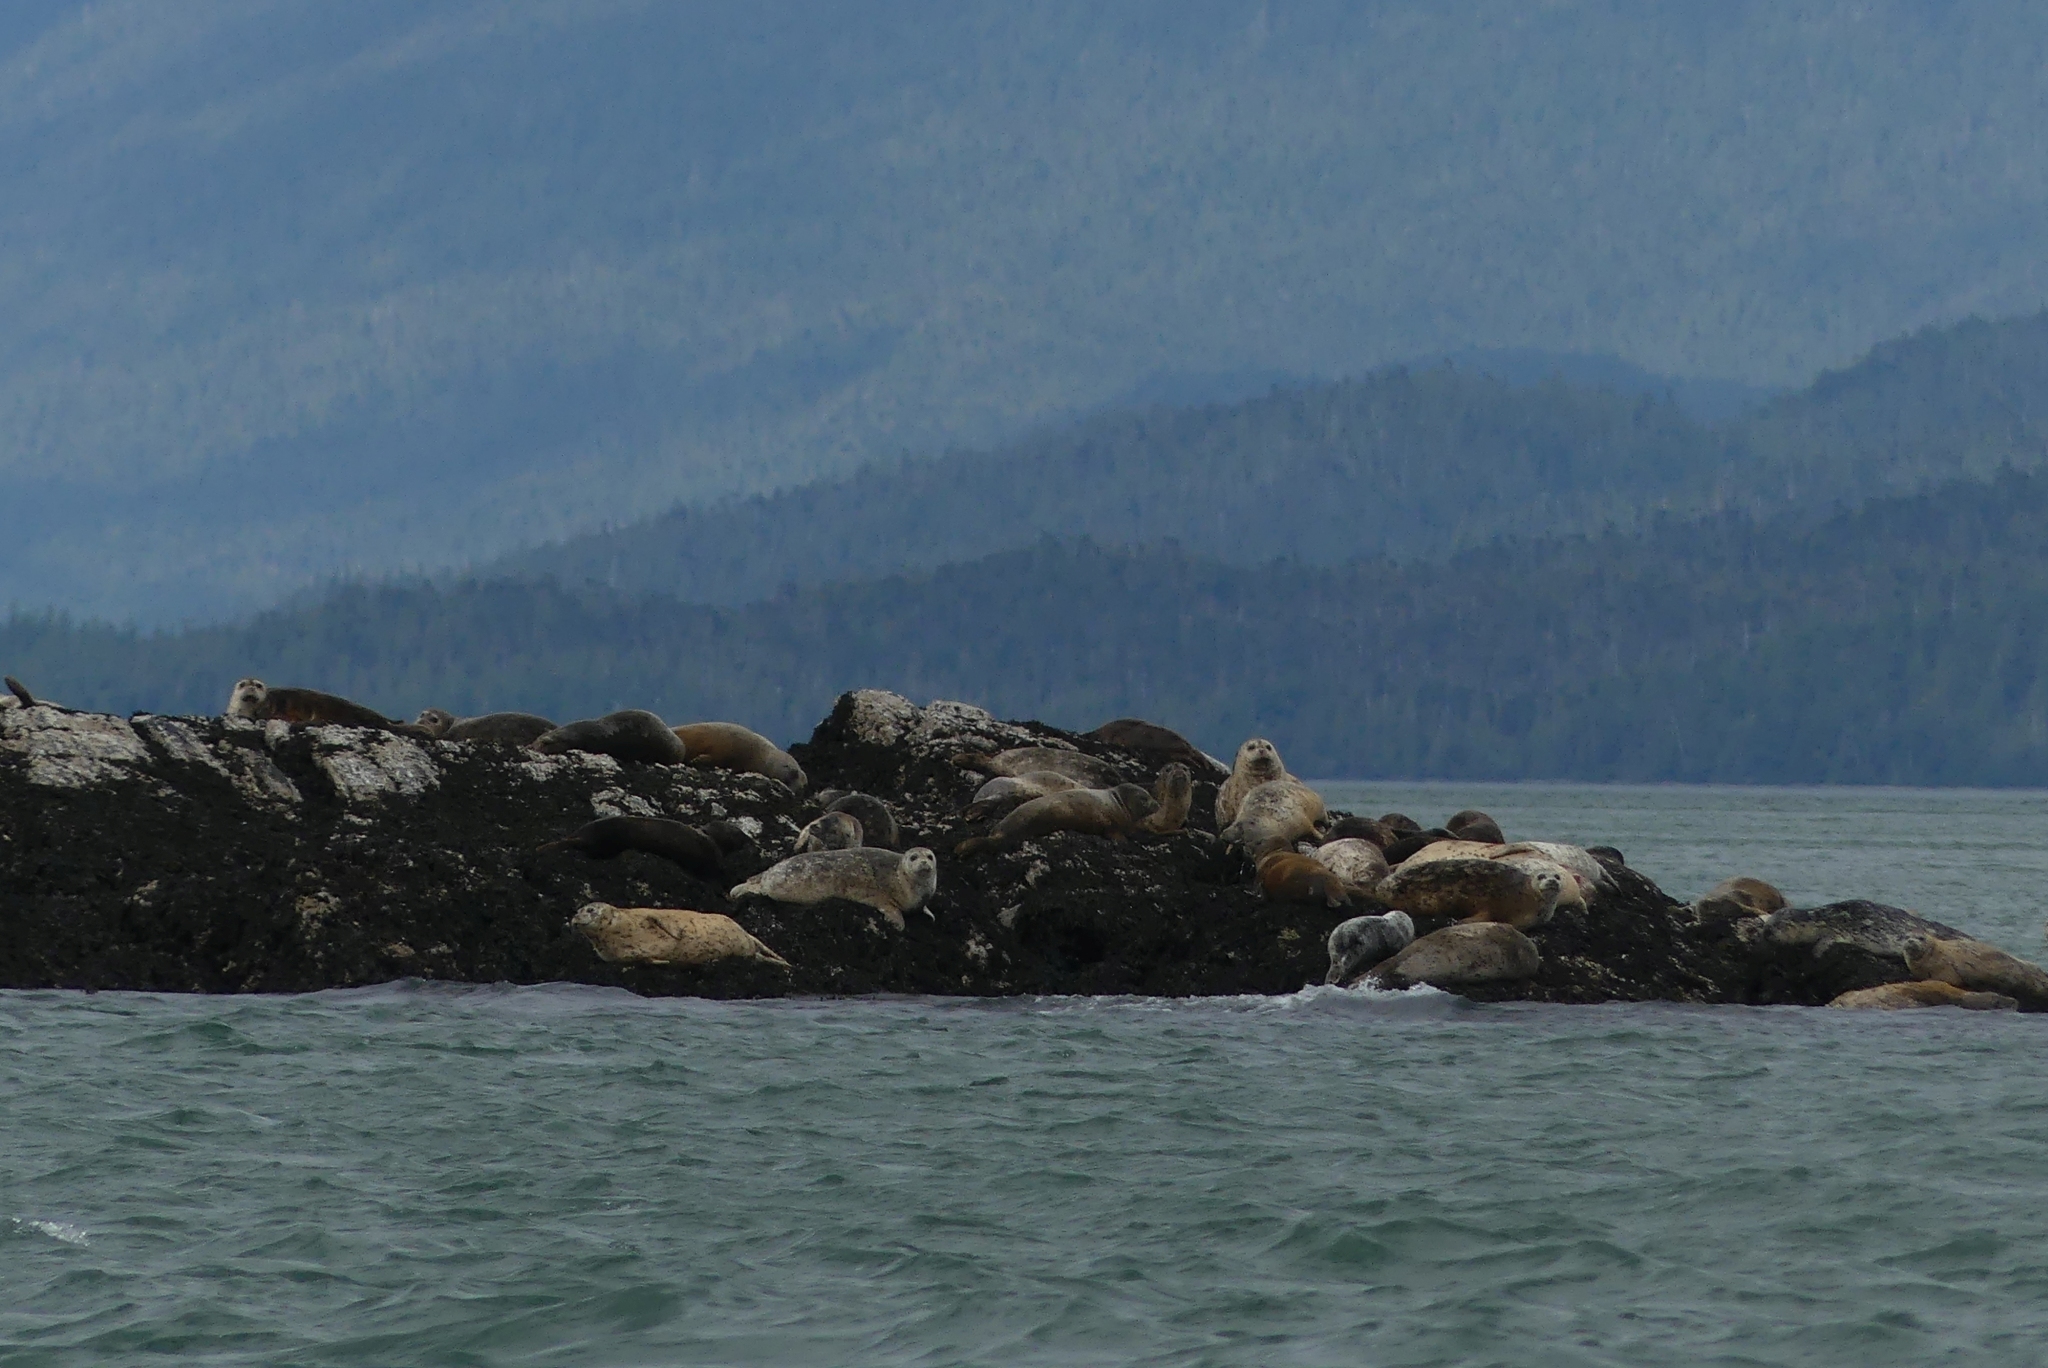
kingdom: Animalia
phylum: Chordata
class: Mammalia
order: Carnivora
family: Phocidae
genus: Phoca
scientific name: Phoca vitulina
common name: Harbor seal
